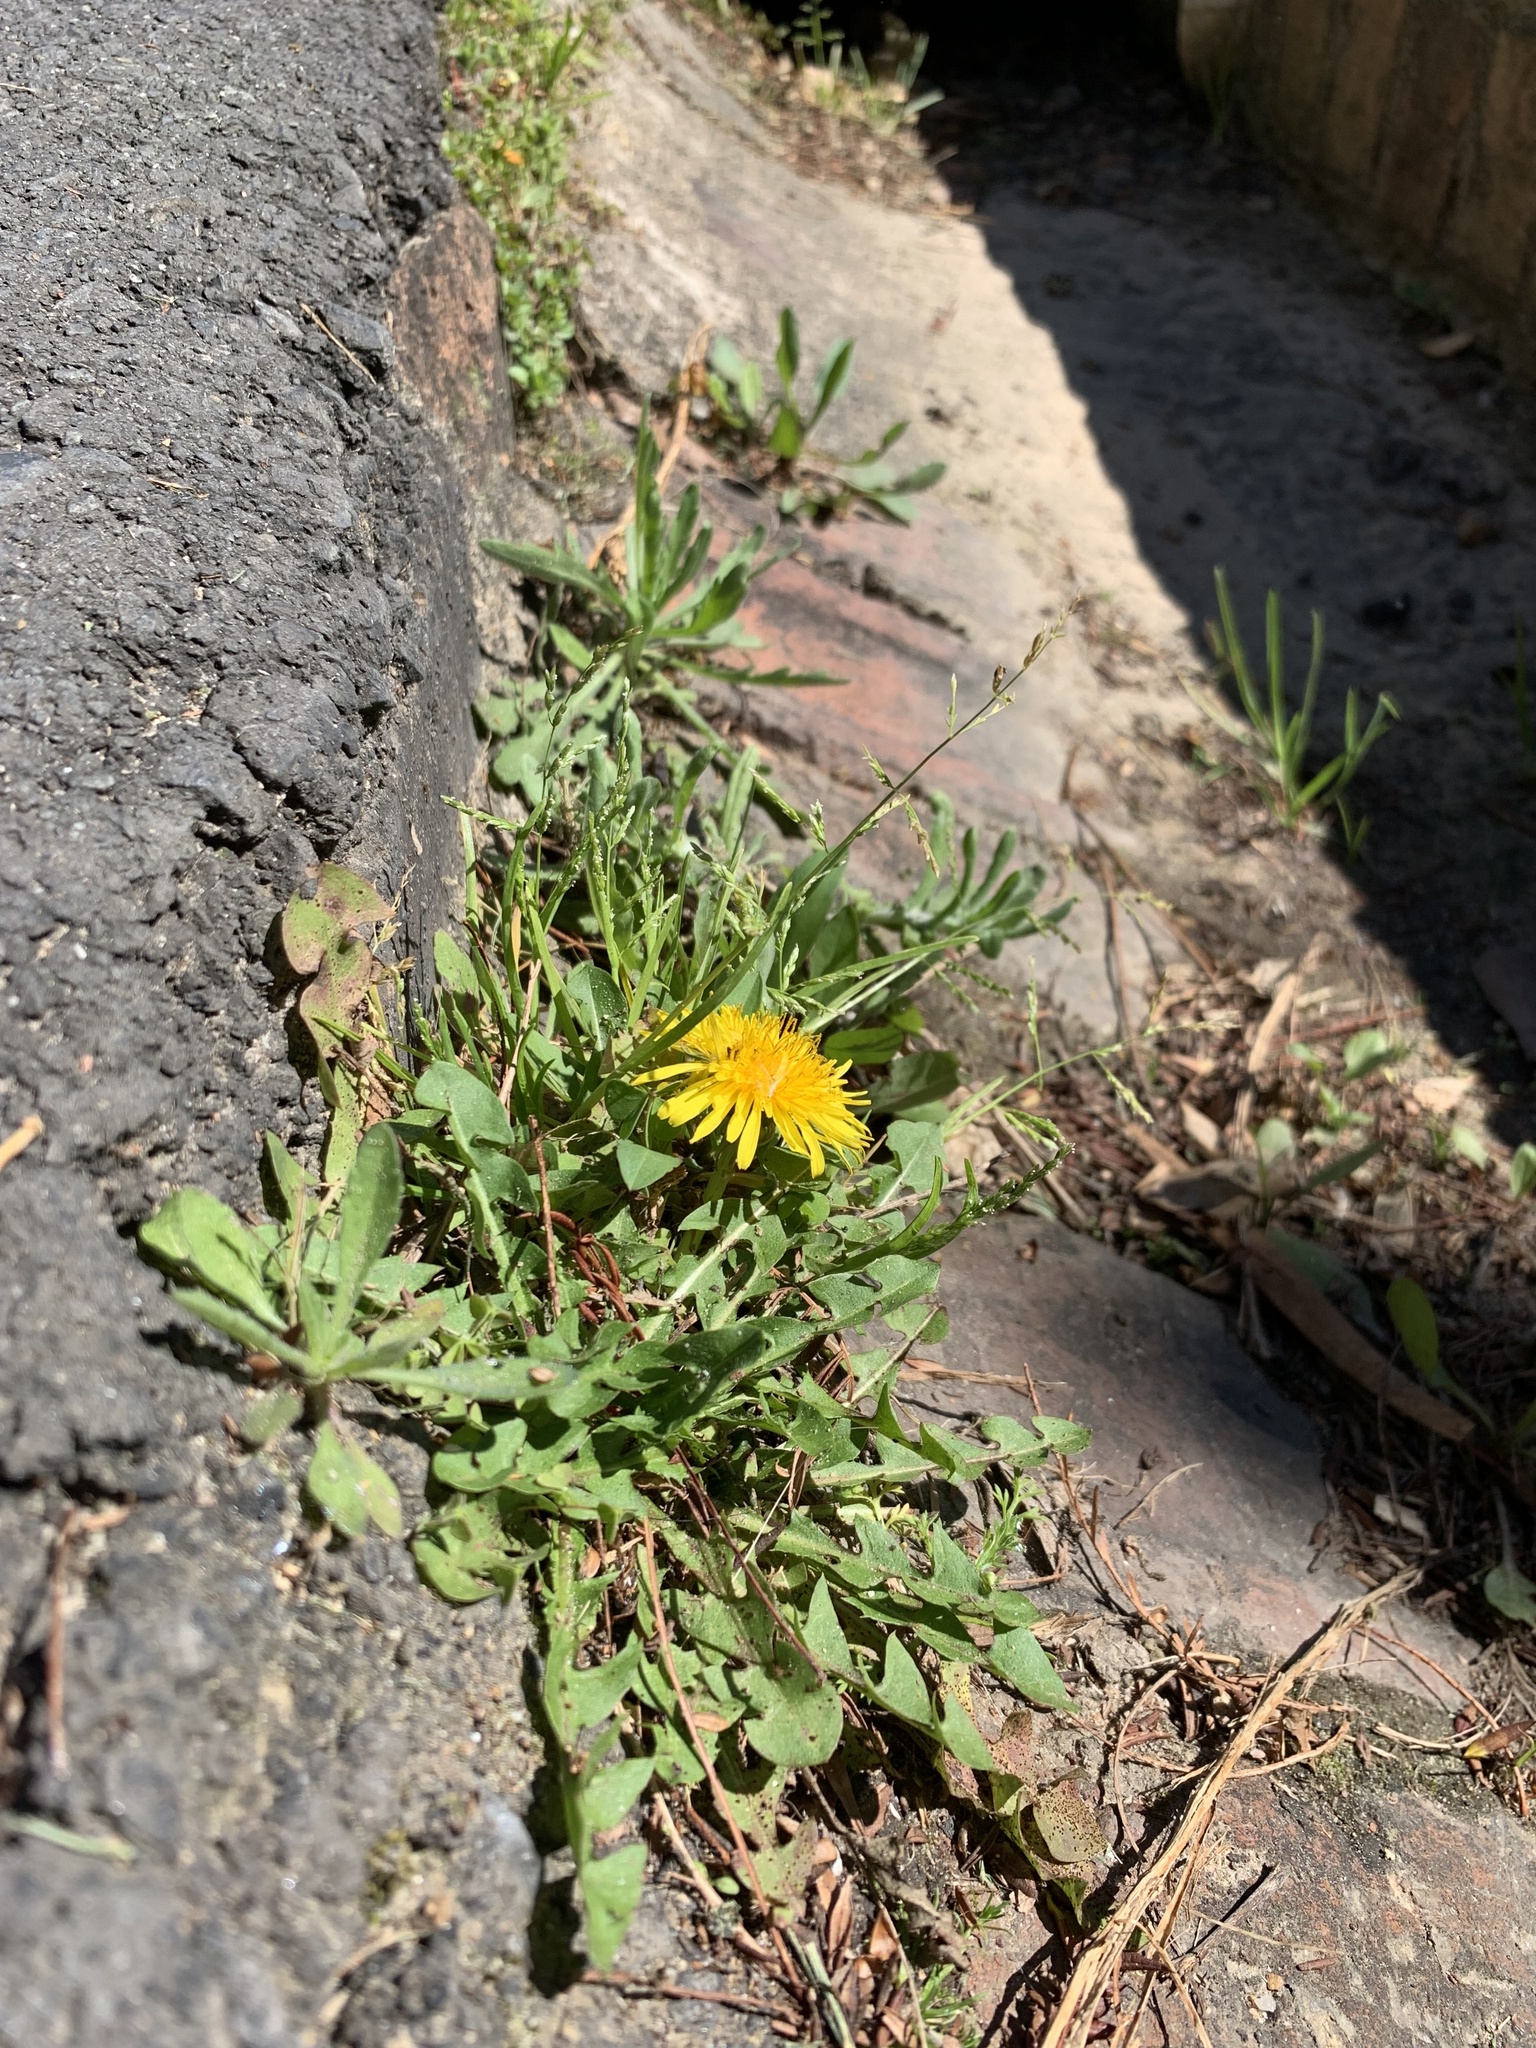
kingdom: Plantae
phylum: Tracheophyta
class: Magnoliopsida
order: Asterales
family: Asteraceae
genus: Taraxacum
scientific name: Taraxacum officinale
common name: Common dandelion
